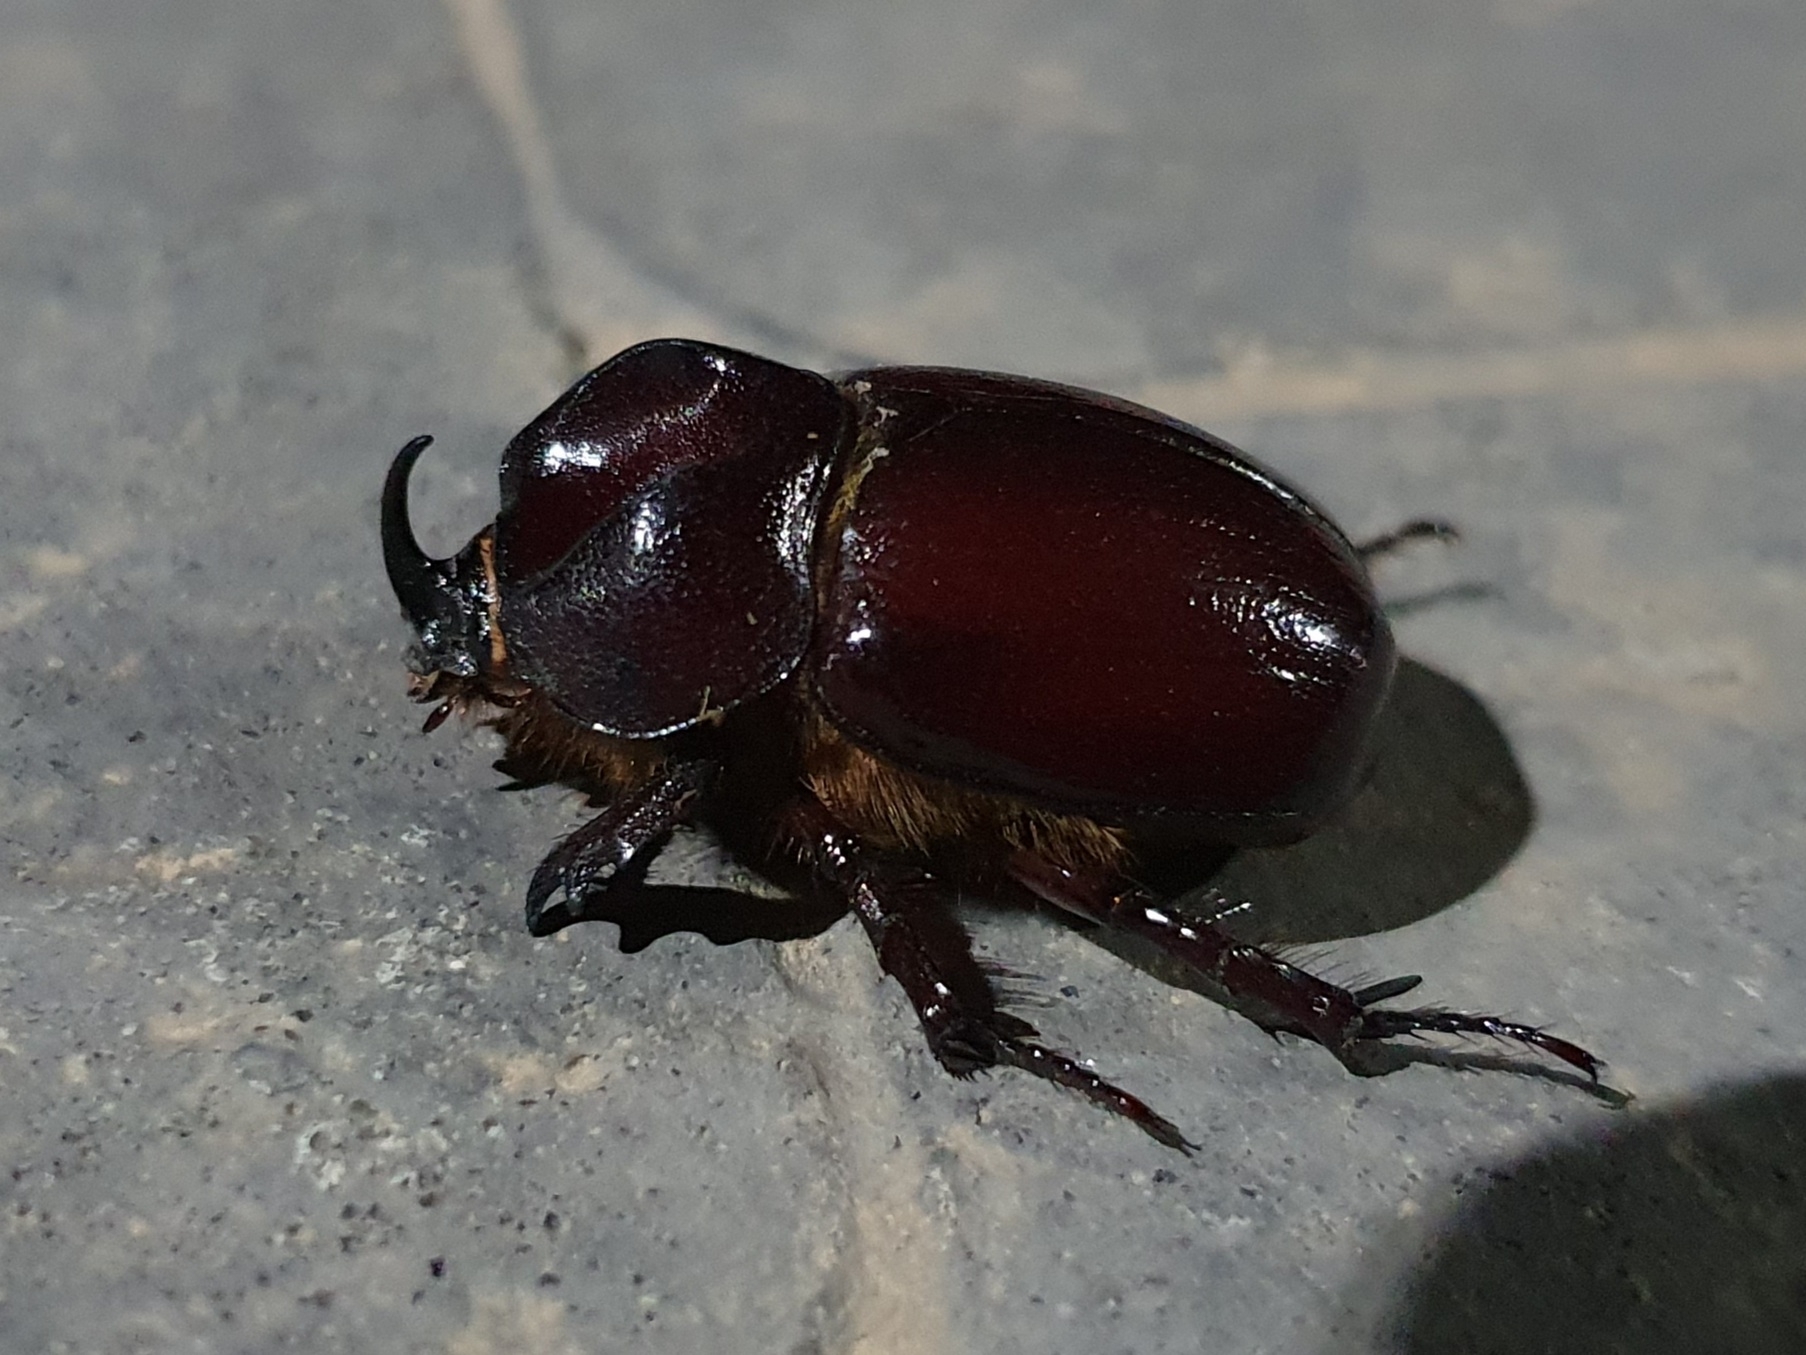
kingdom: Animalia
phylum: Arthropoda
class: Insecta
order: Coleoptera
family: Scarabaeidae
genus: Phyllognathus
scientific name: Phyllognathus excavatus
